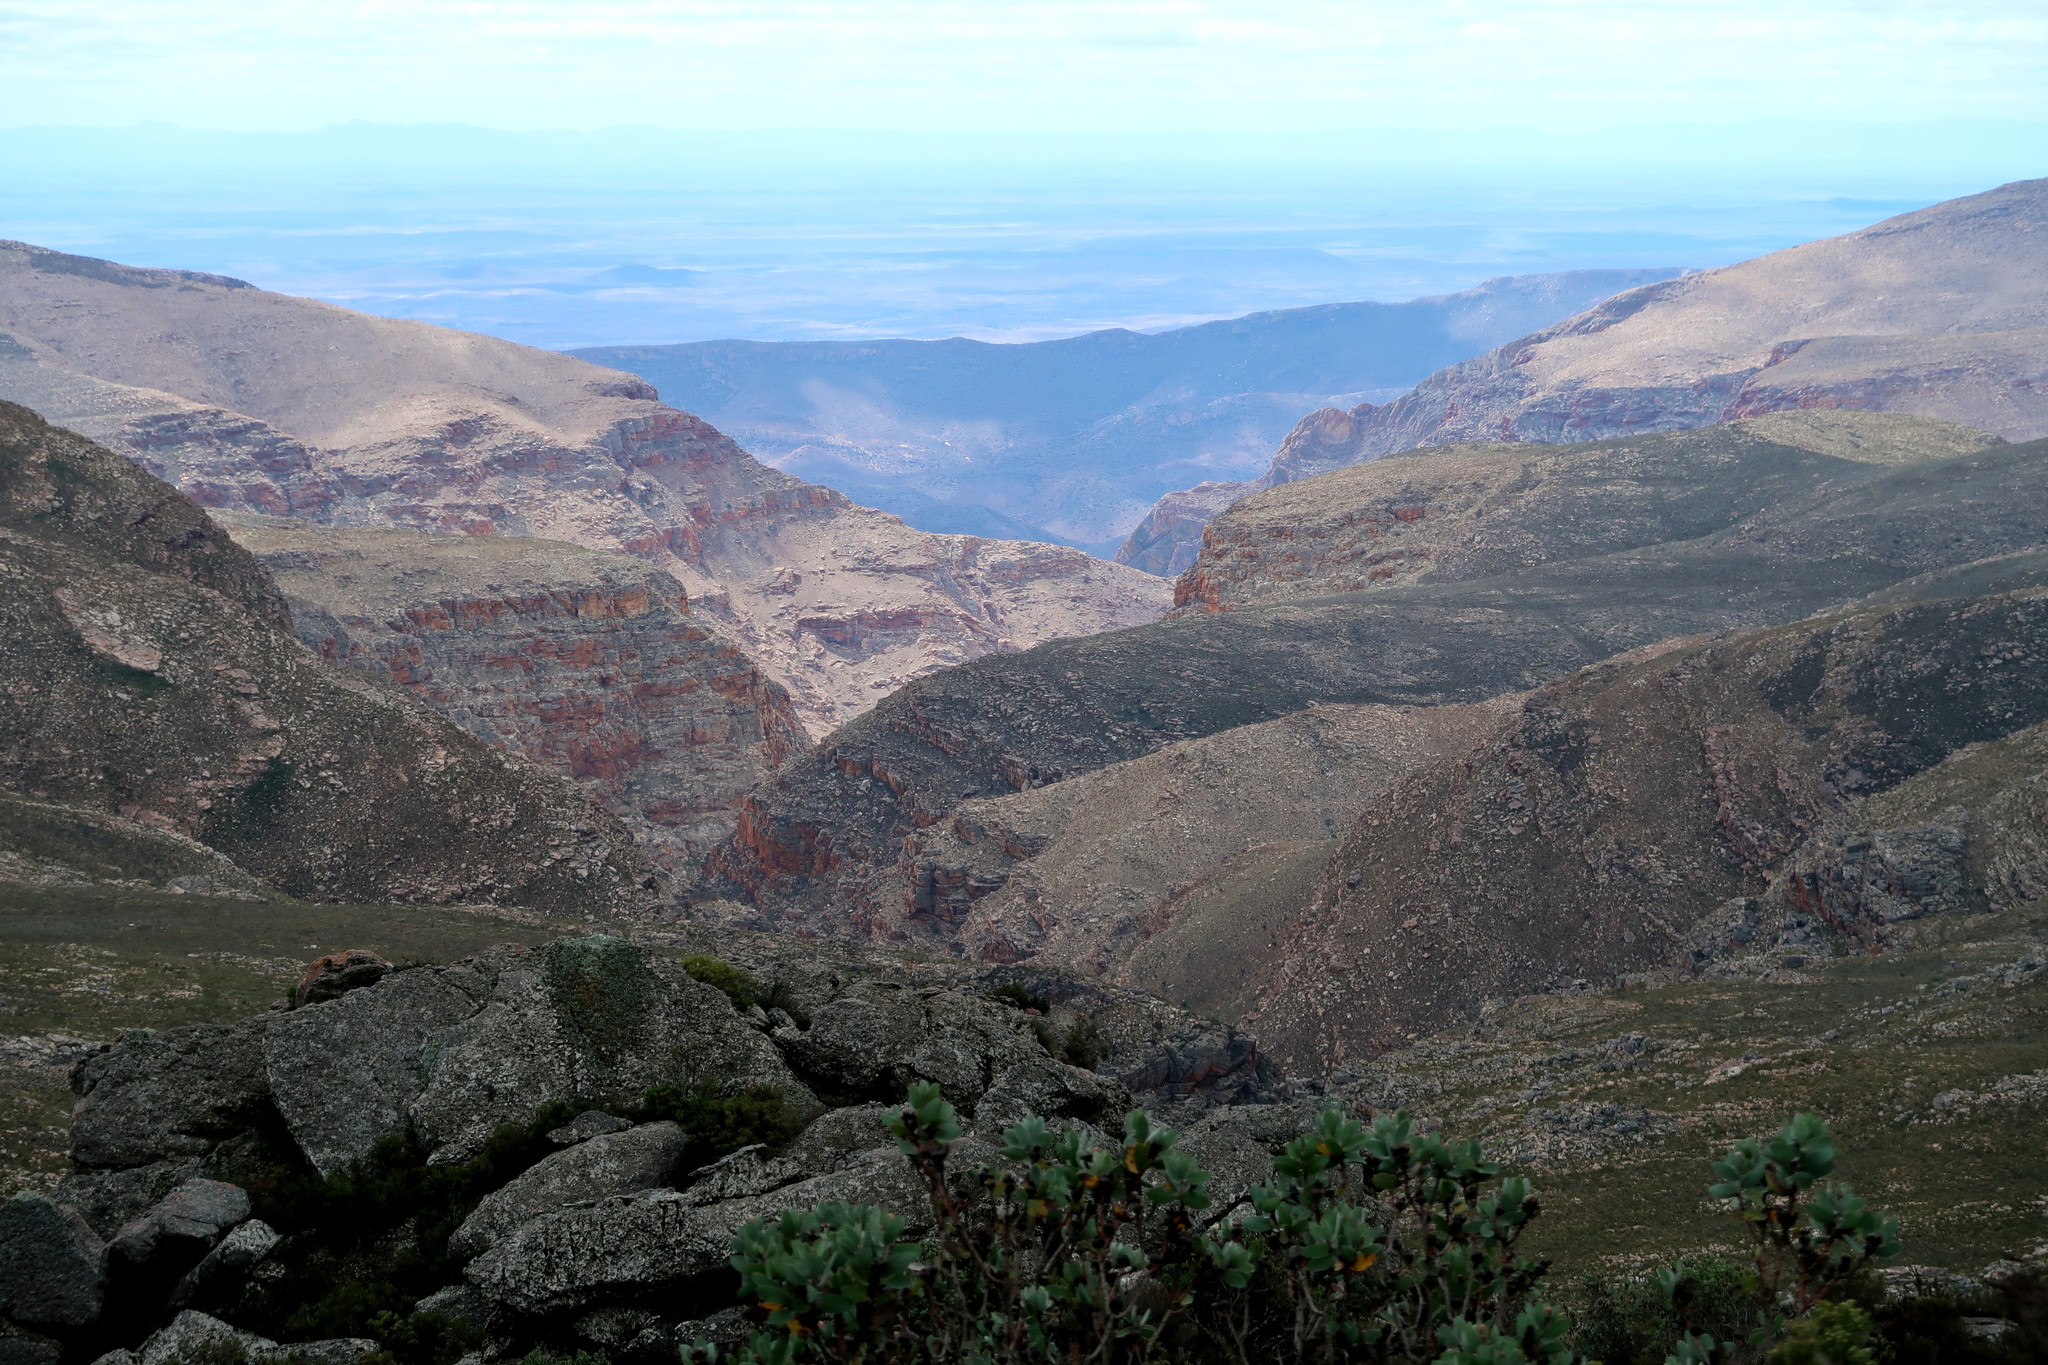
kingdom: Plantae
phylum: Tracheophyta
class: Magnoliopsida
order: Proteales
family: Proteaceae
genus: Leucadendron
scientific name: Leucadendron album
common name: Linear-leaf conebush
